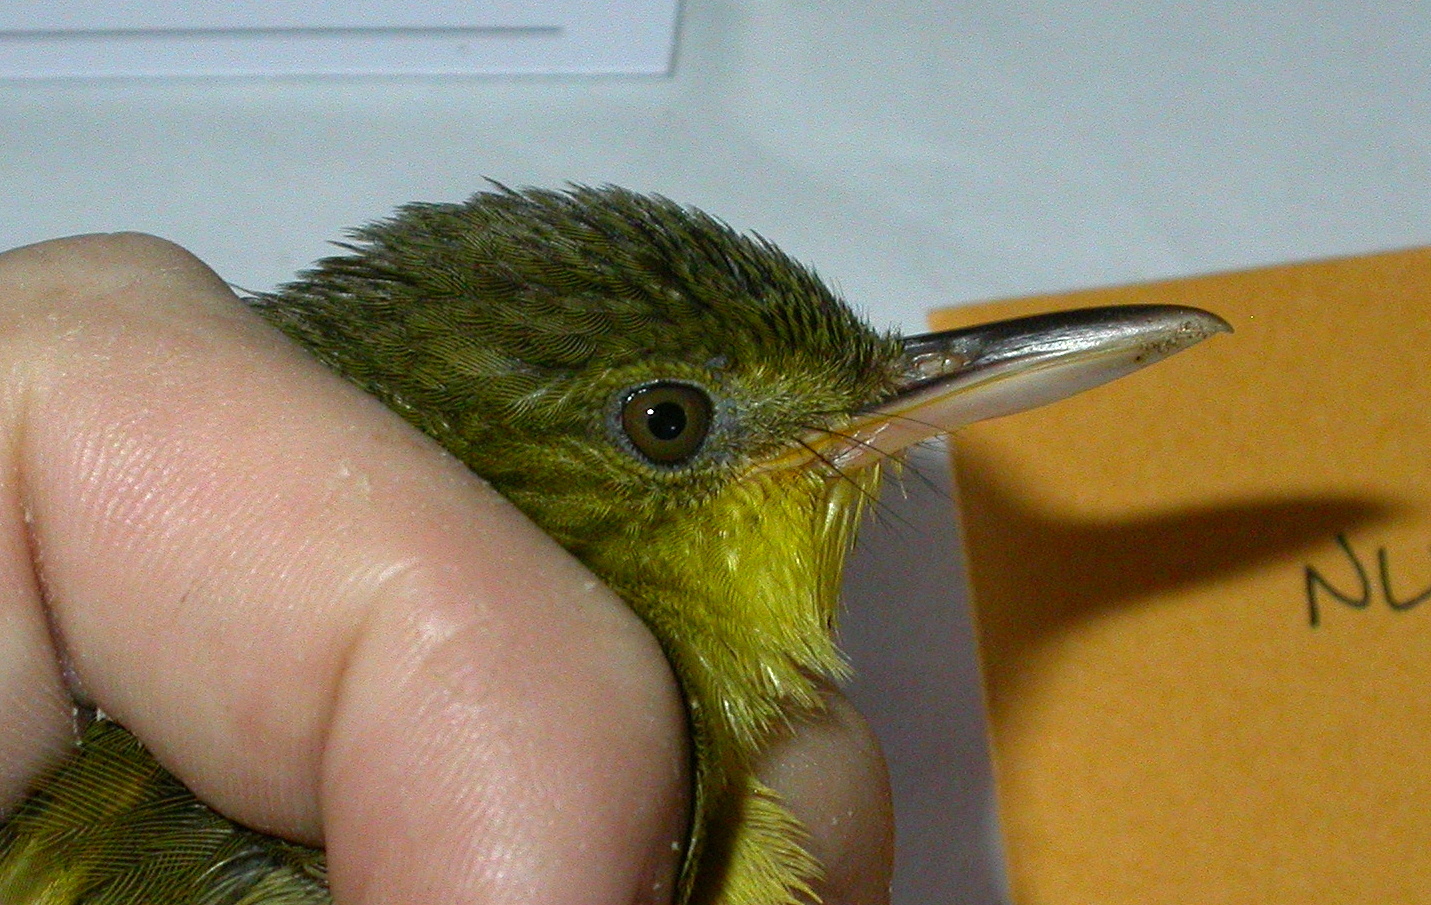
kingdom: Animalia
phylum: Chordata
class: Aves
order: Passeriformes
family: Bernieridae
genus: Bernieria
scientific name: Bernieria madagascariensis
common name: Long-billed bernieria
